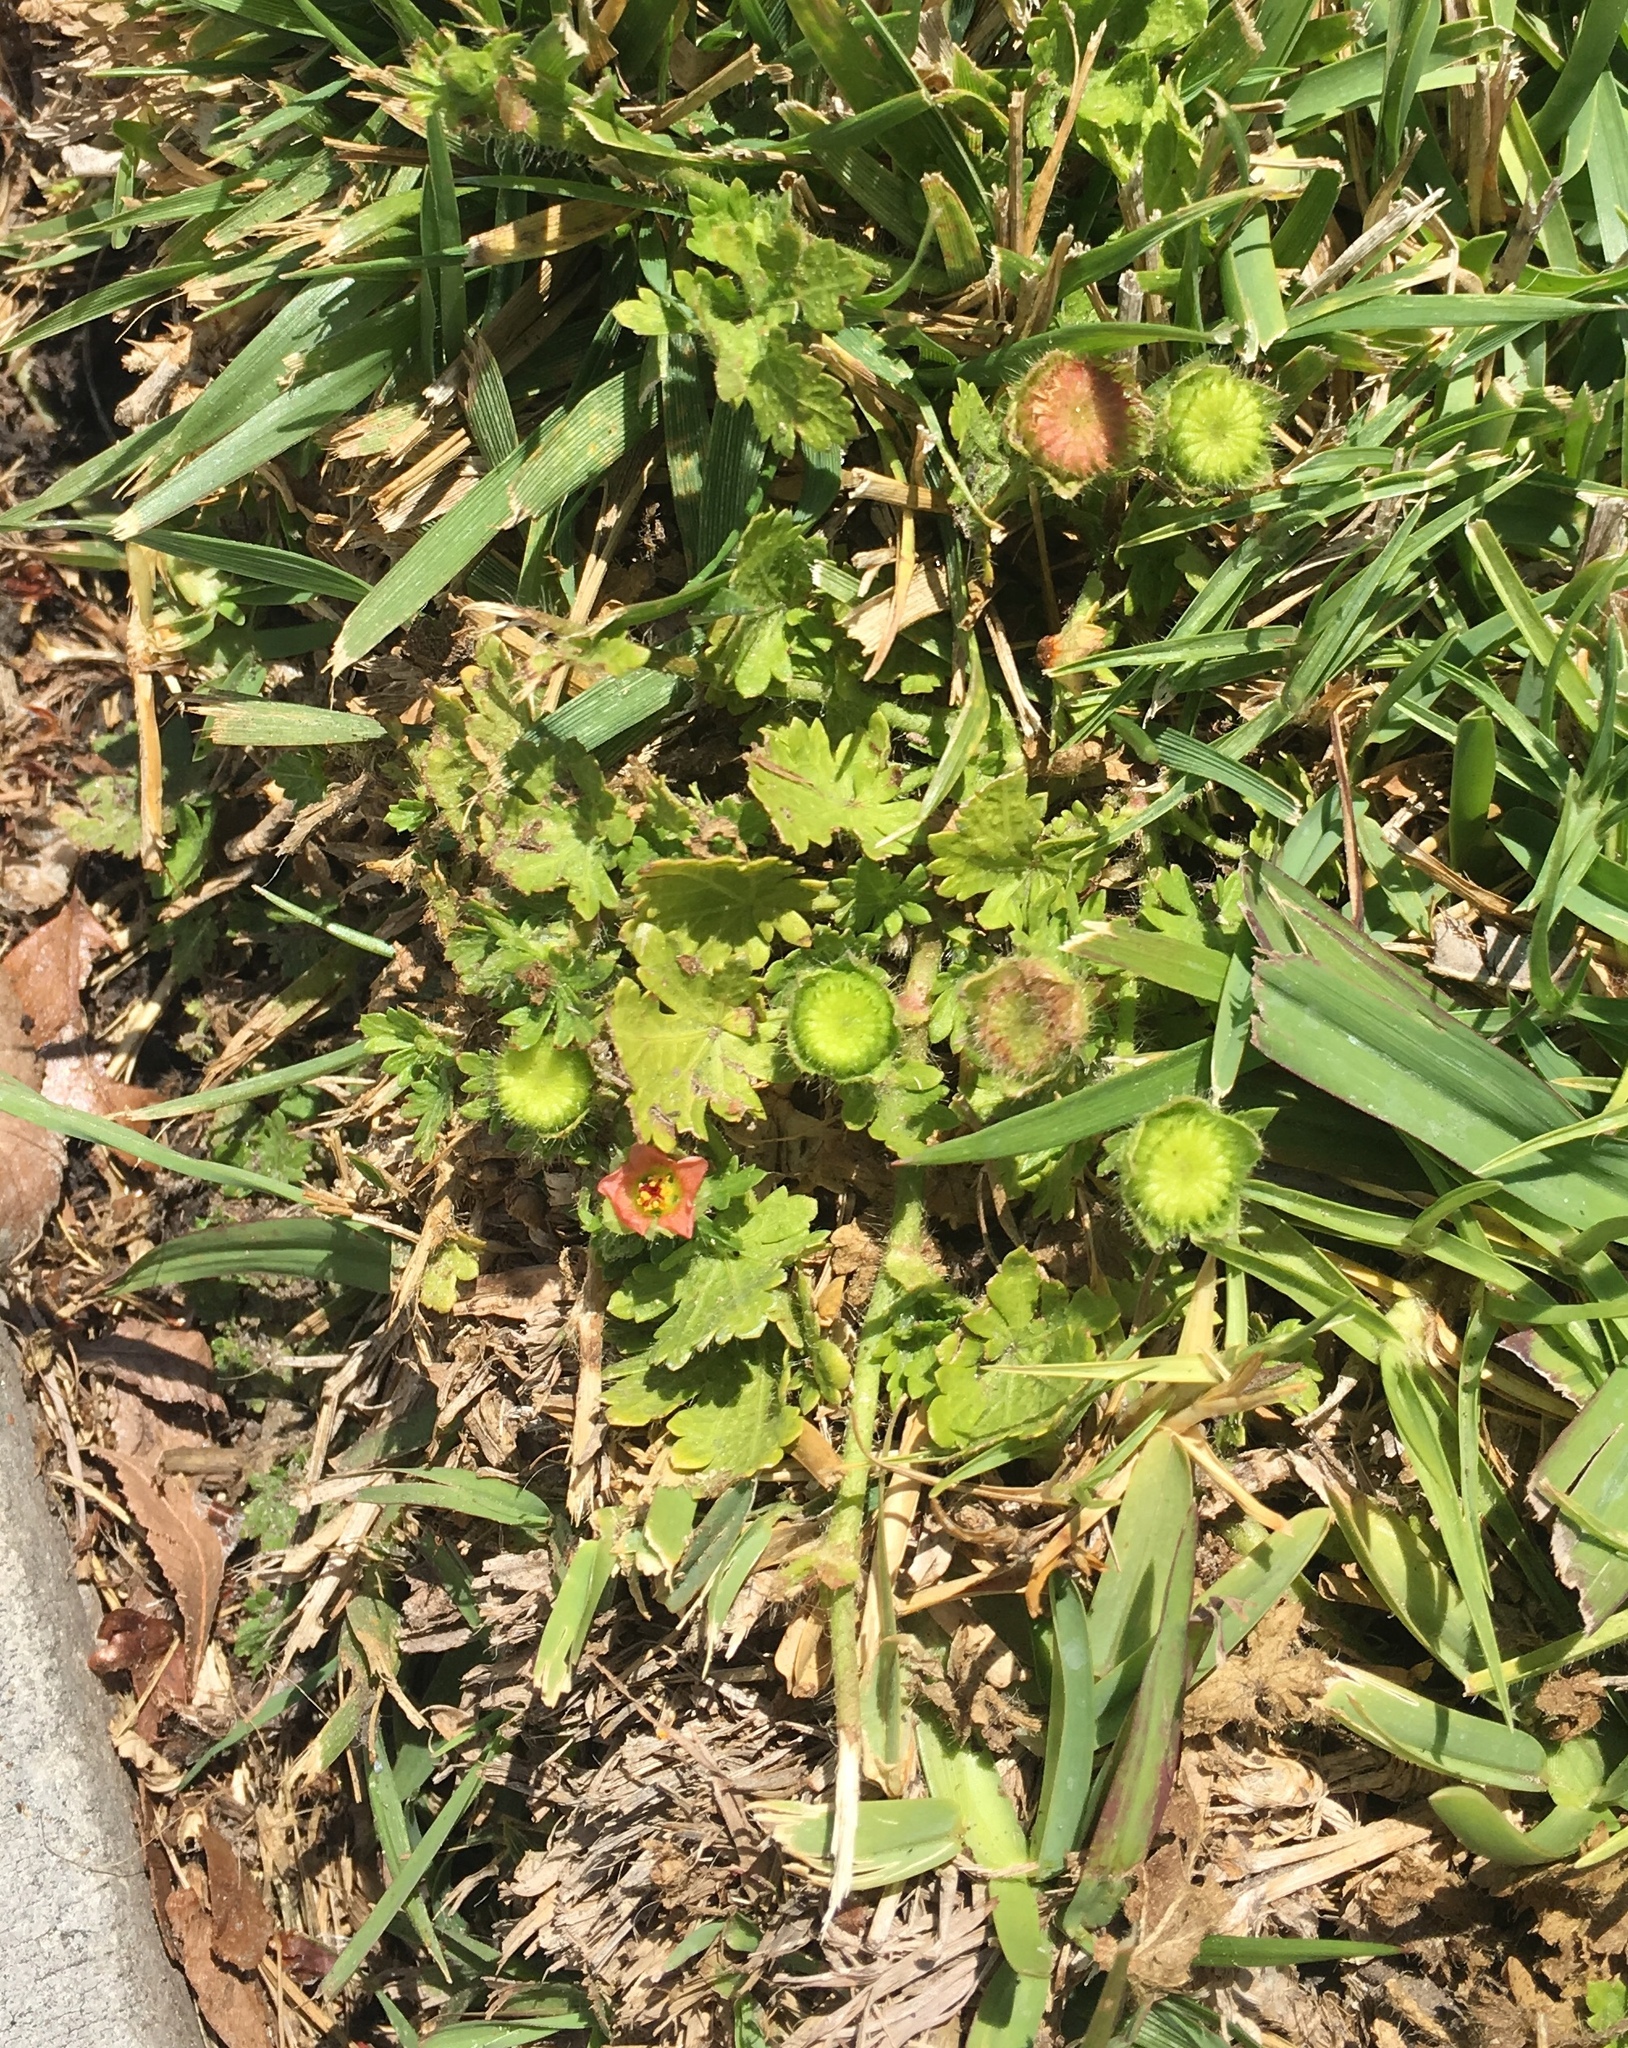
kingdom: Plantae
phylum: Tracheophyta
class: Magnoliopsida
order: Malvales
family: Malvaceae
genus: Modiola
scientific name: Modiola caroliniana
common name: Carolina bristlemallow
